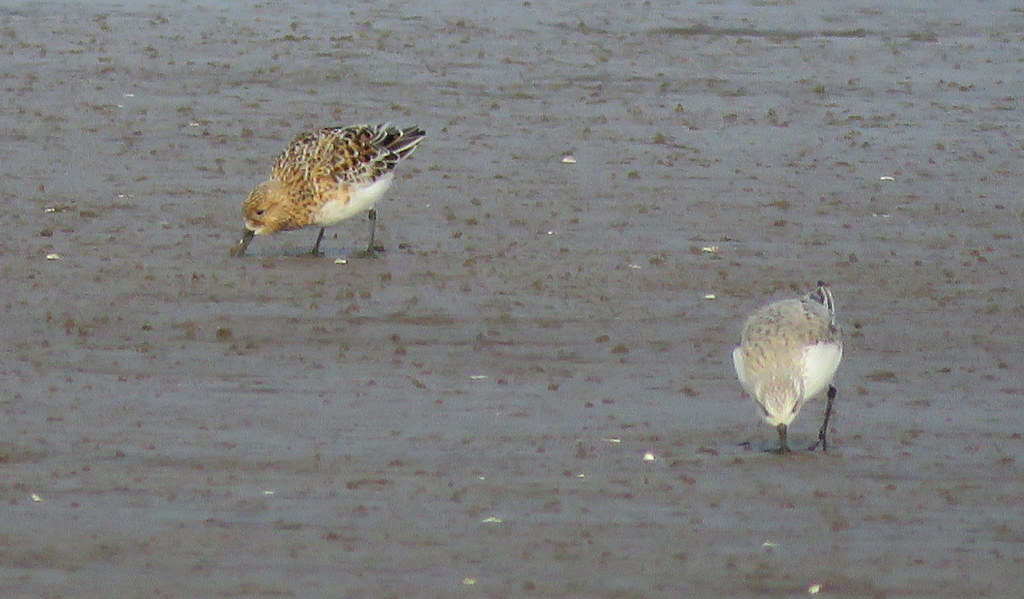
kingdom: Animalia
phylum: Chordata
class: Aves
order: Charadriiformes
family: Scolopacidae
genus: Calidris
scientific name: Calidris alba
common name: Sanderling
